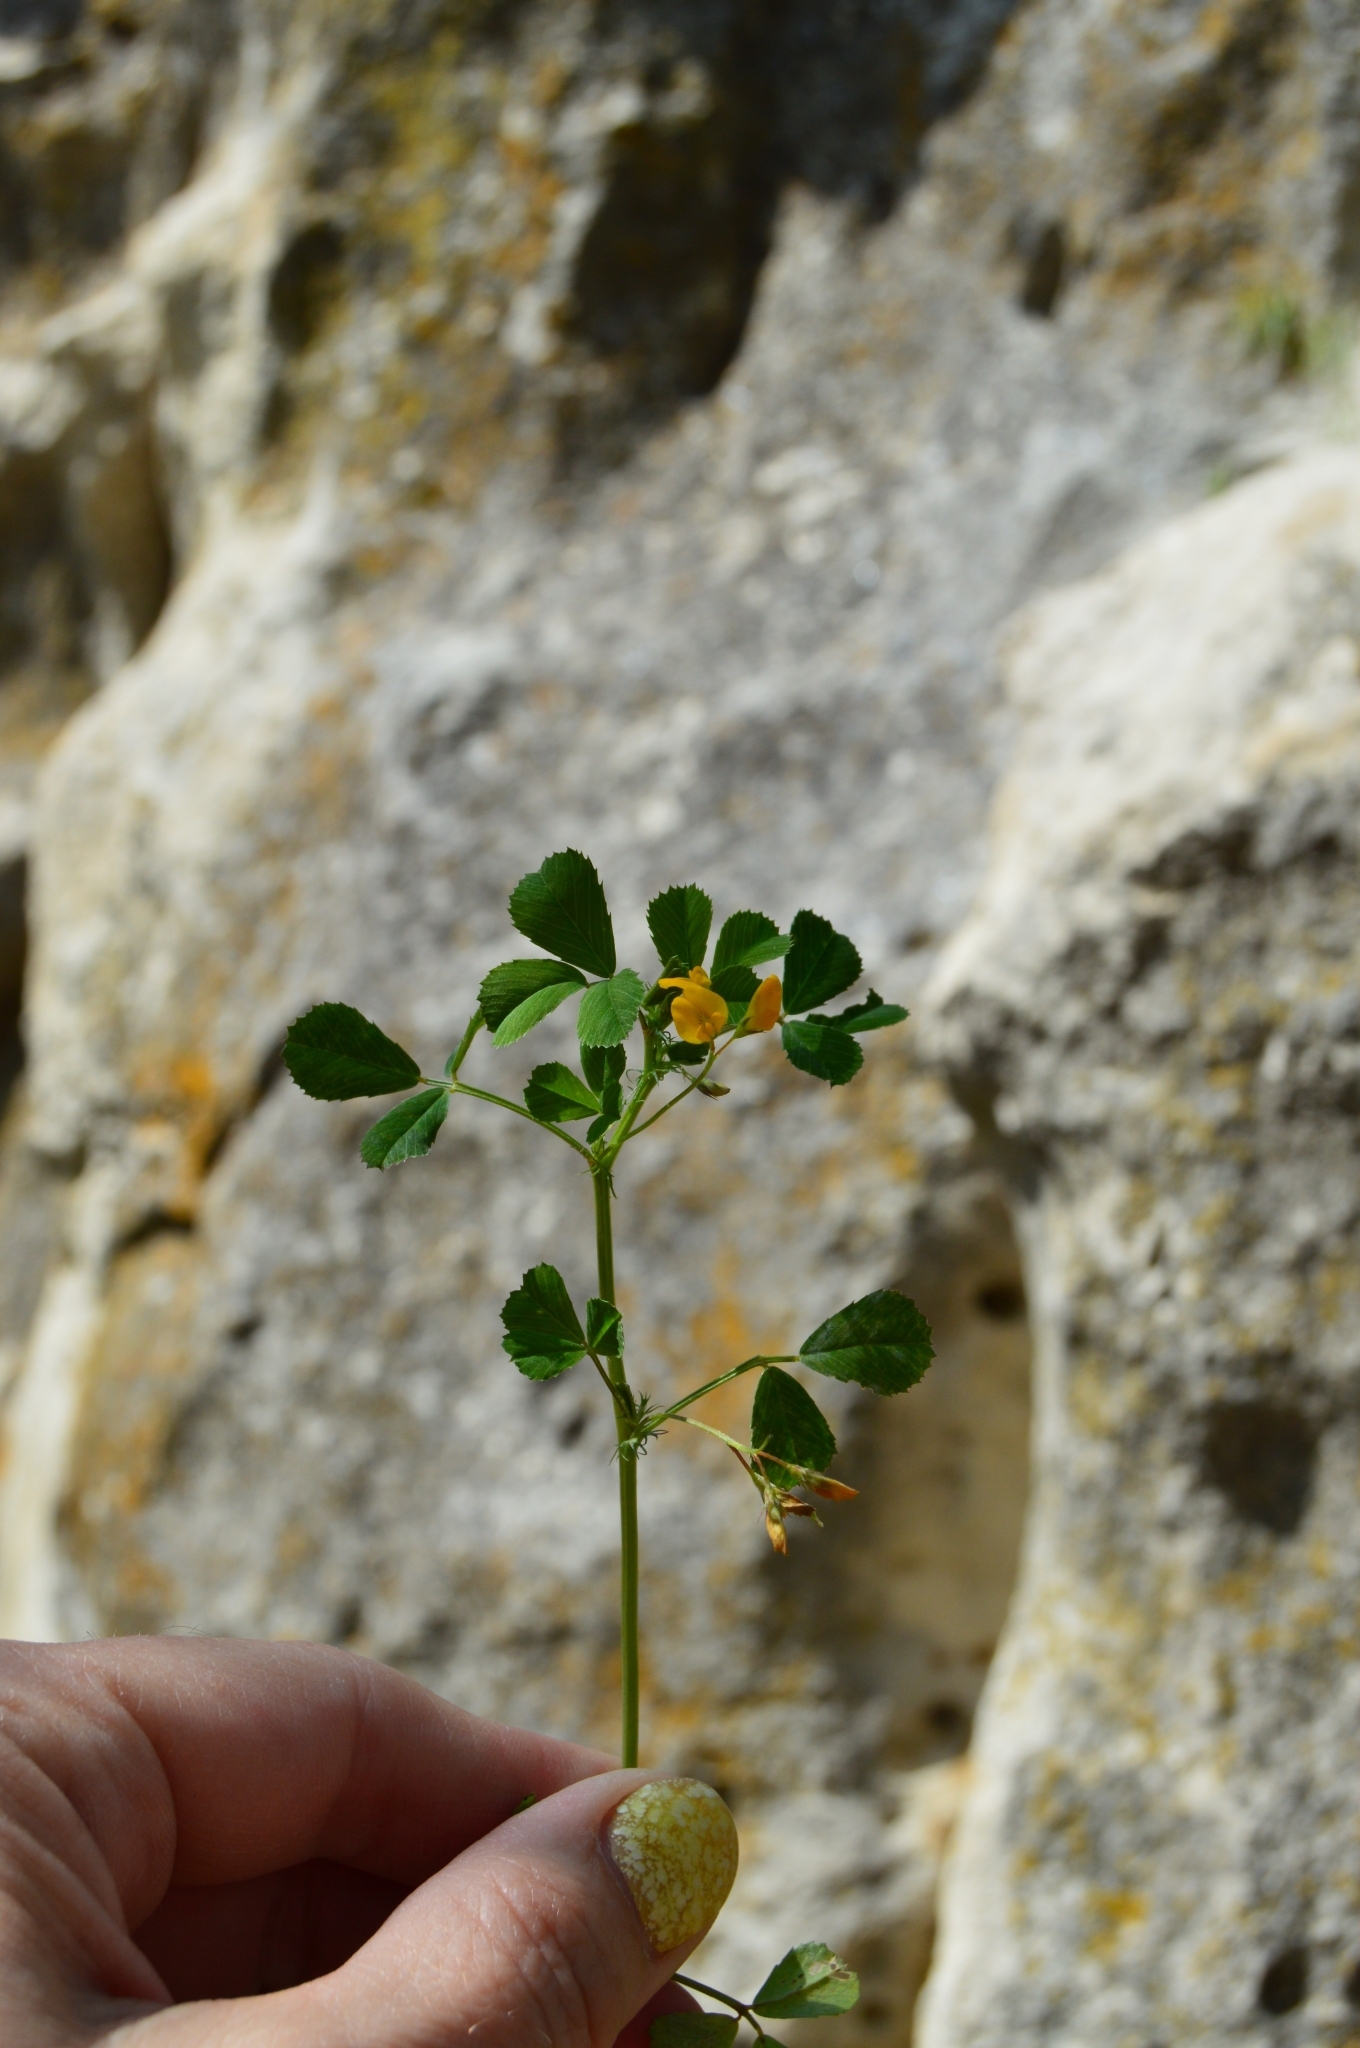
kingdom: Plantae
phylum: Tracheophyta
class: Magnoliopsida
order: Fabales
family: Fabaceae
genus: Medicago
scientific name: Medicago orbicularis
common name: Button medick
